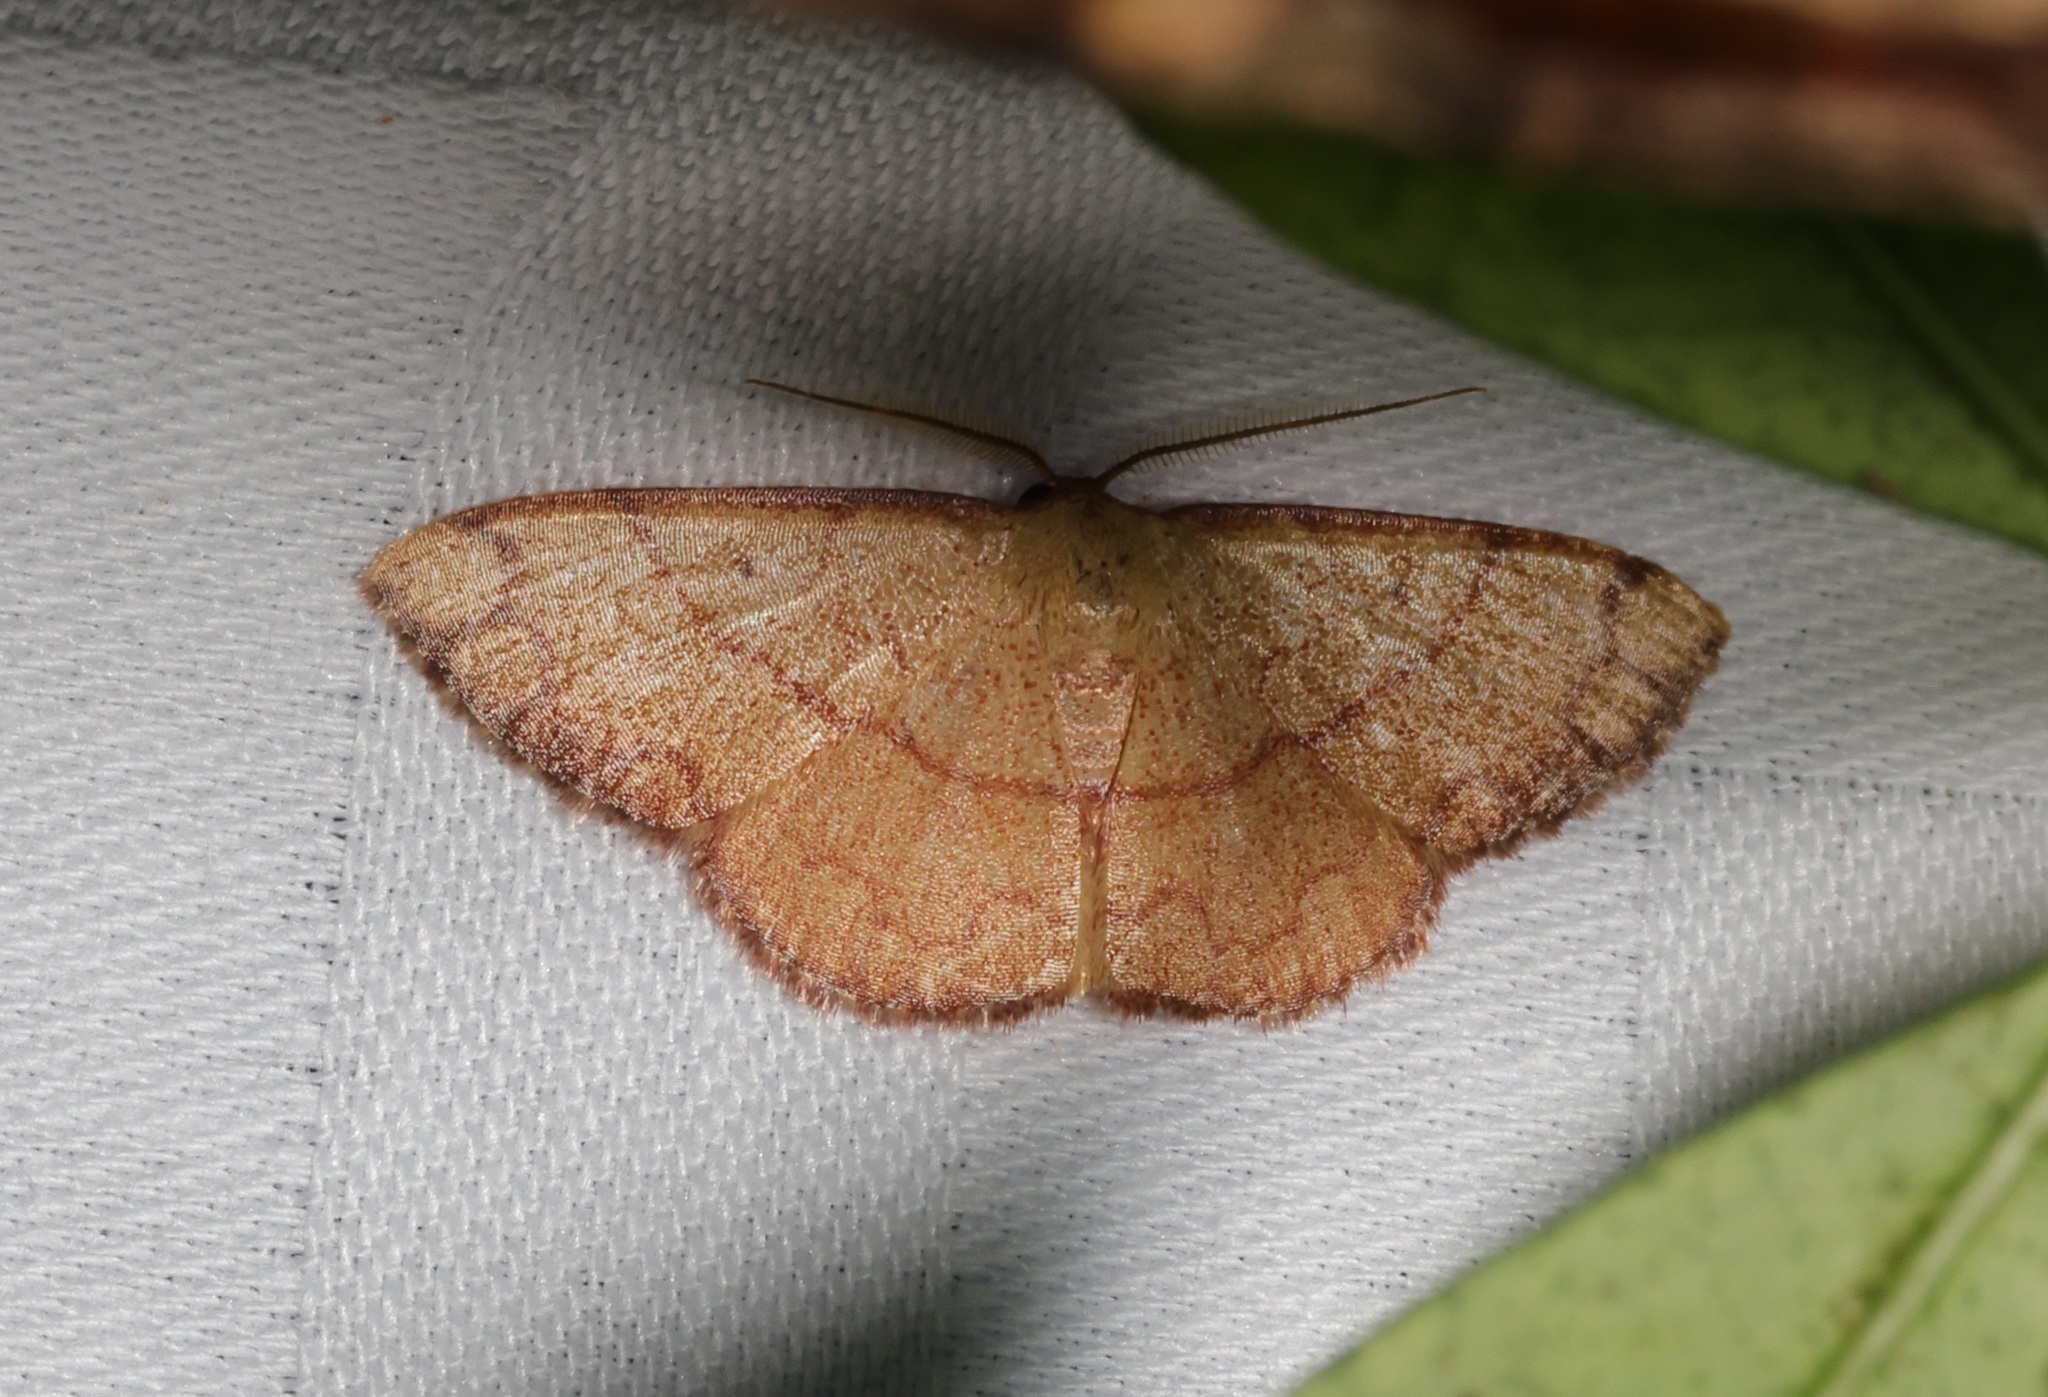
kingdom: Animalia
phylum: Arthropoda
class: Insecta
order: Lepidoptera
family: Geometridae
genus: Pylargosceles
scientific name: Pylargosceles steganioides
